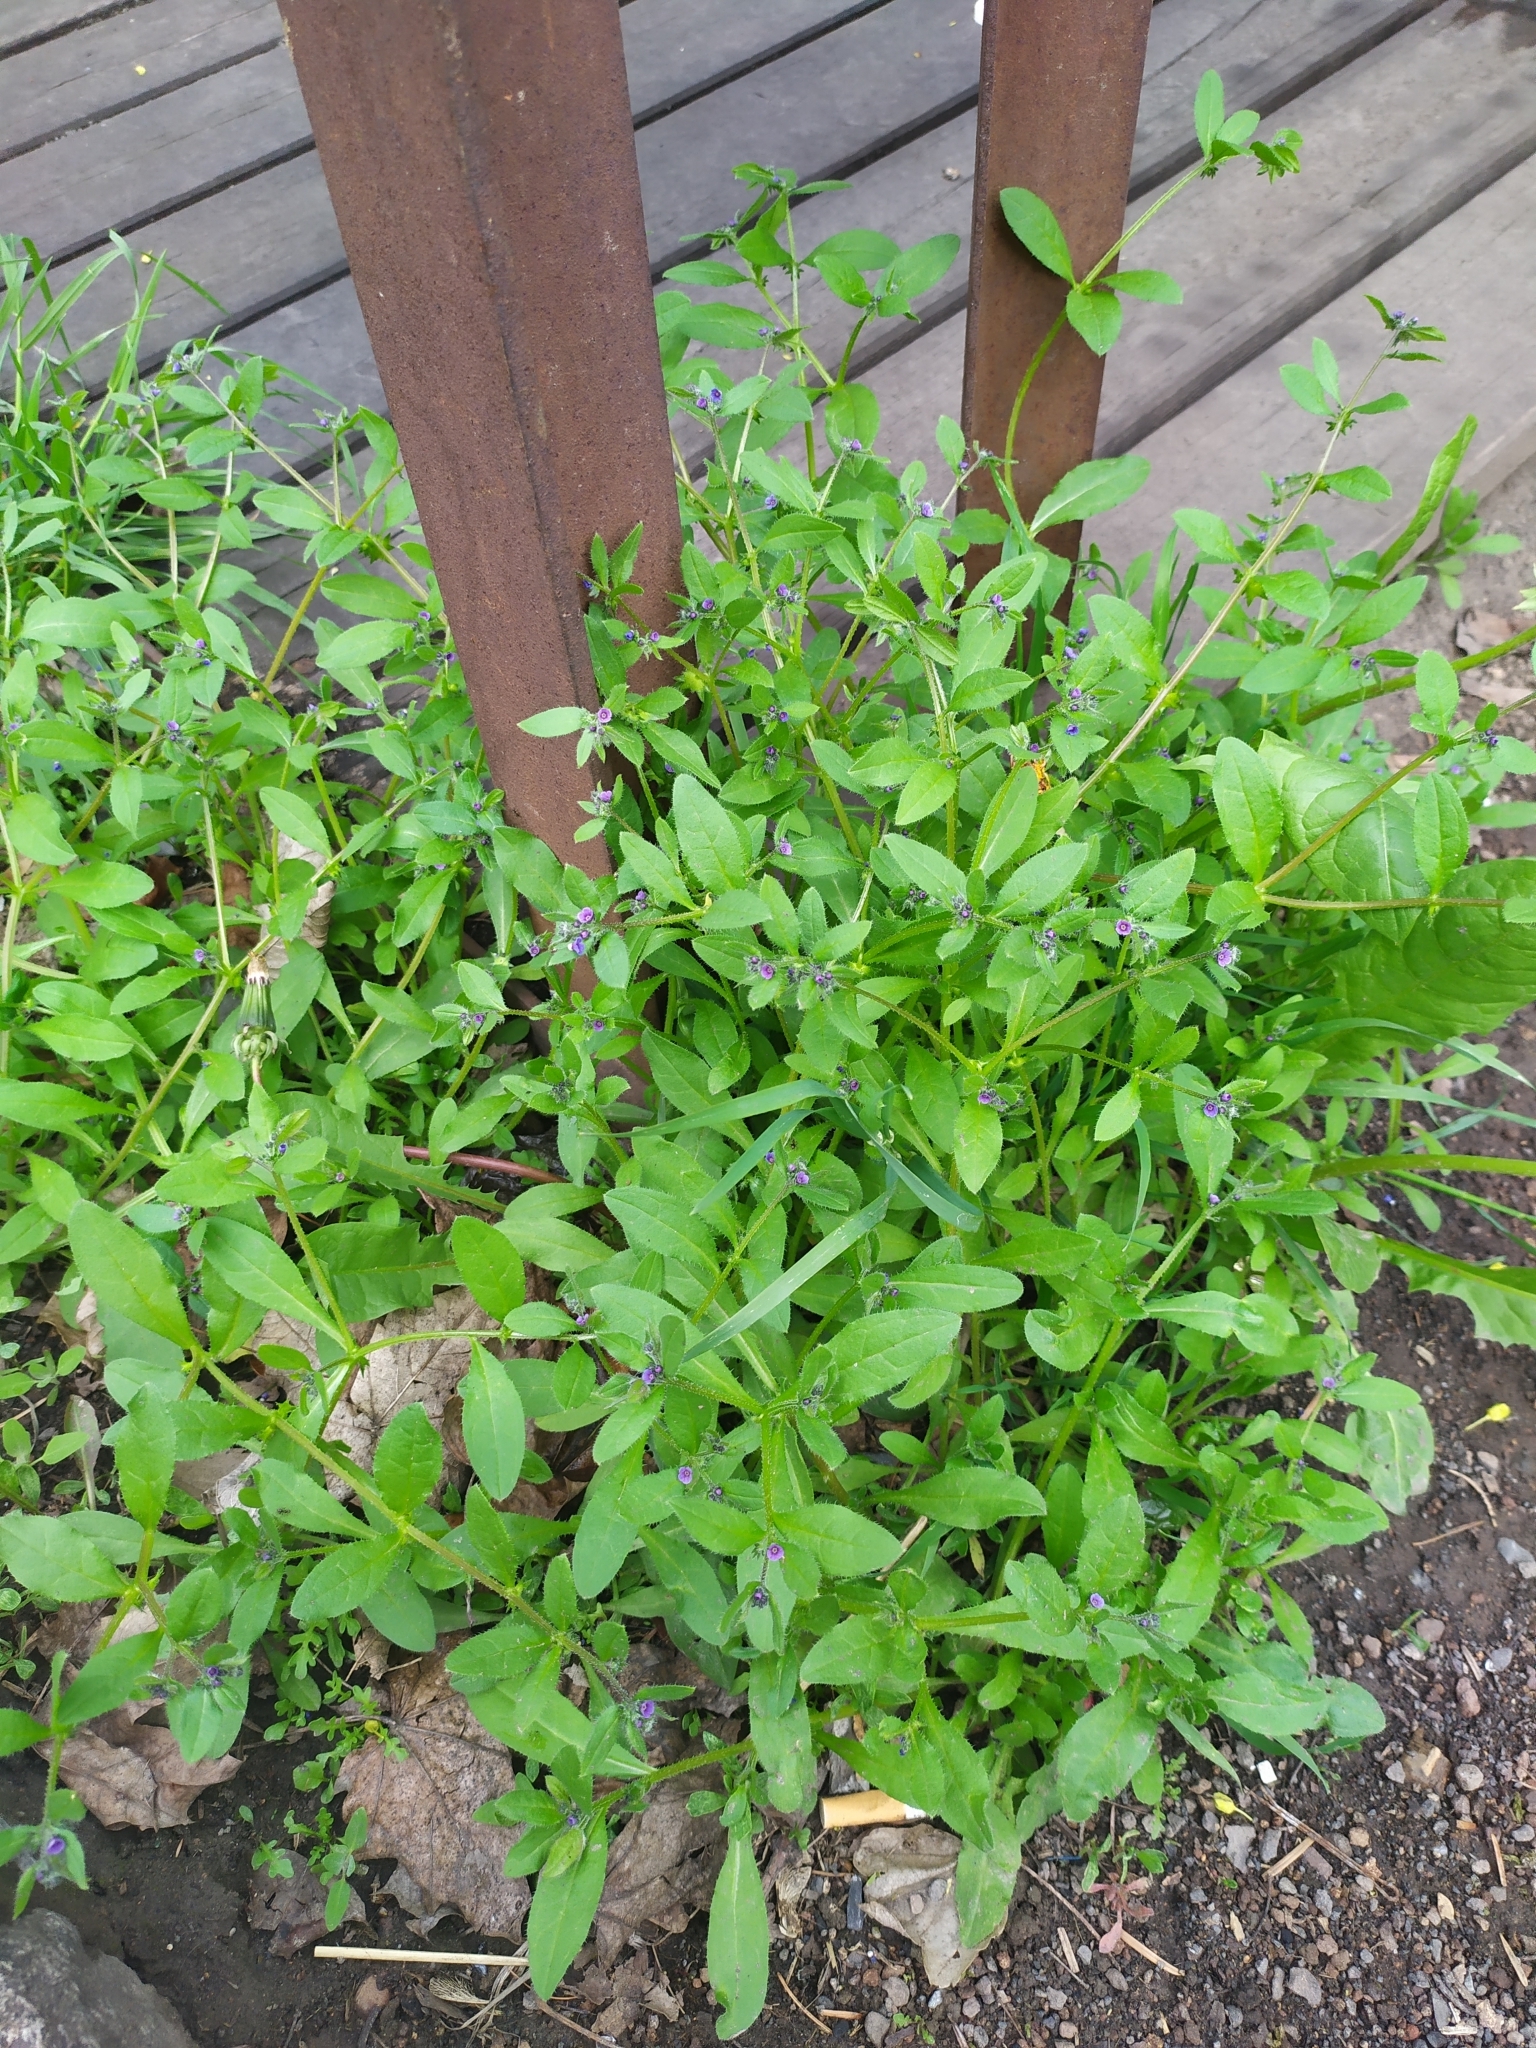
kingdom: Plantae
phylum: Tracheophyta
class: Magnoliopsida
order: Boraginales
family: Boraginaceae
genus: Asperugo
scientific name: Asperugo procumbens
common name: Madwort
